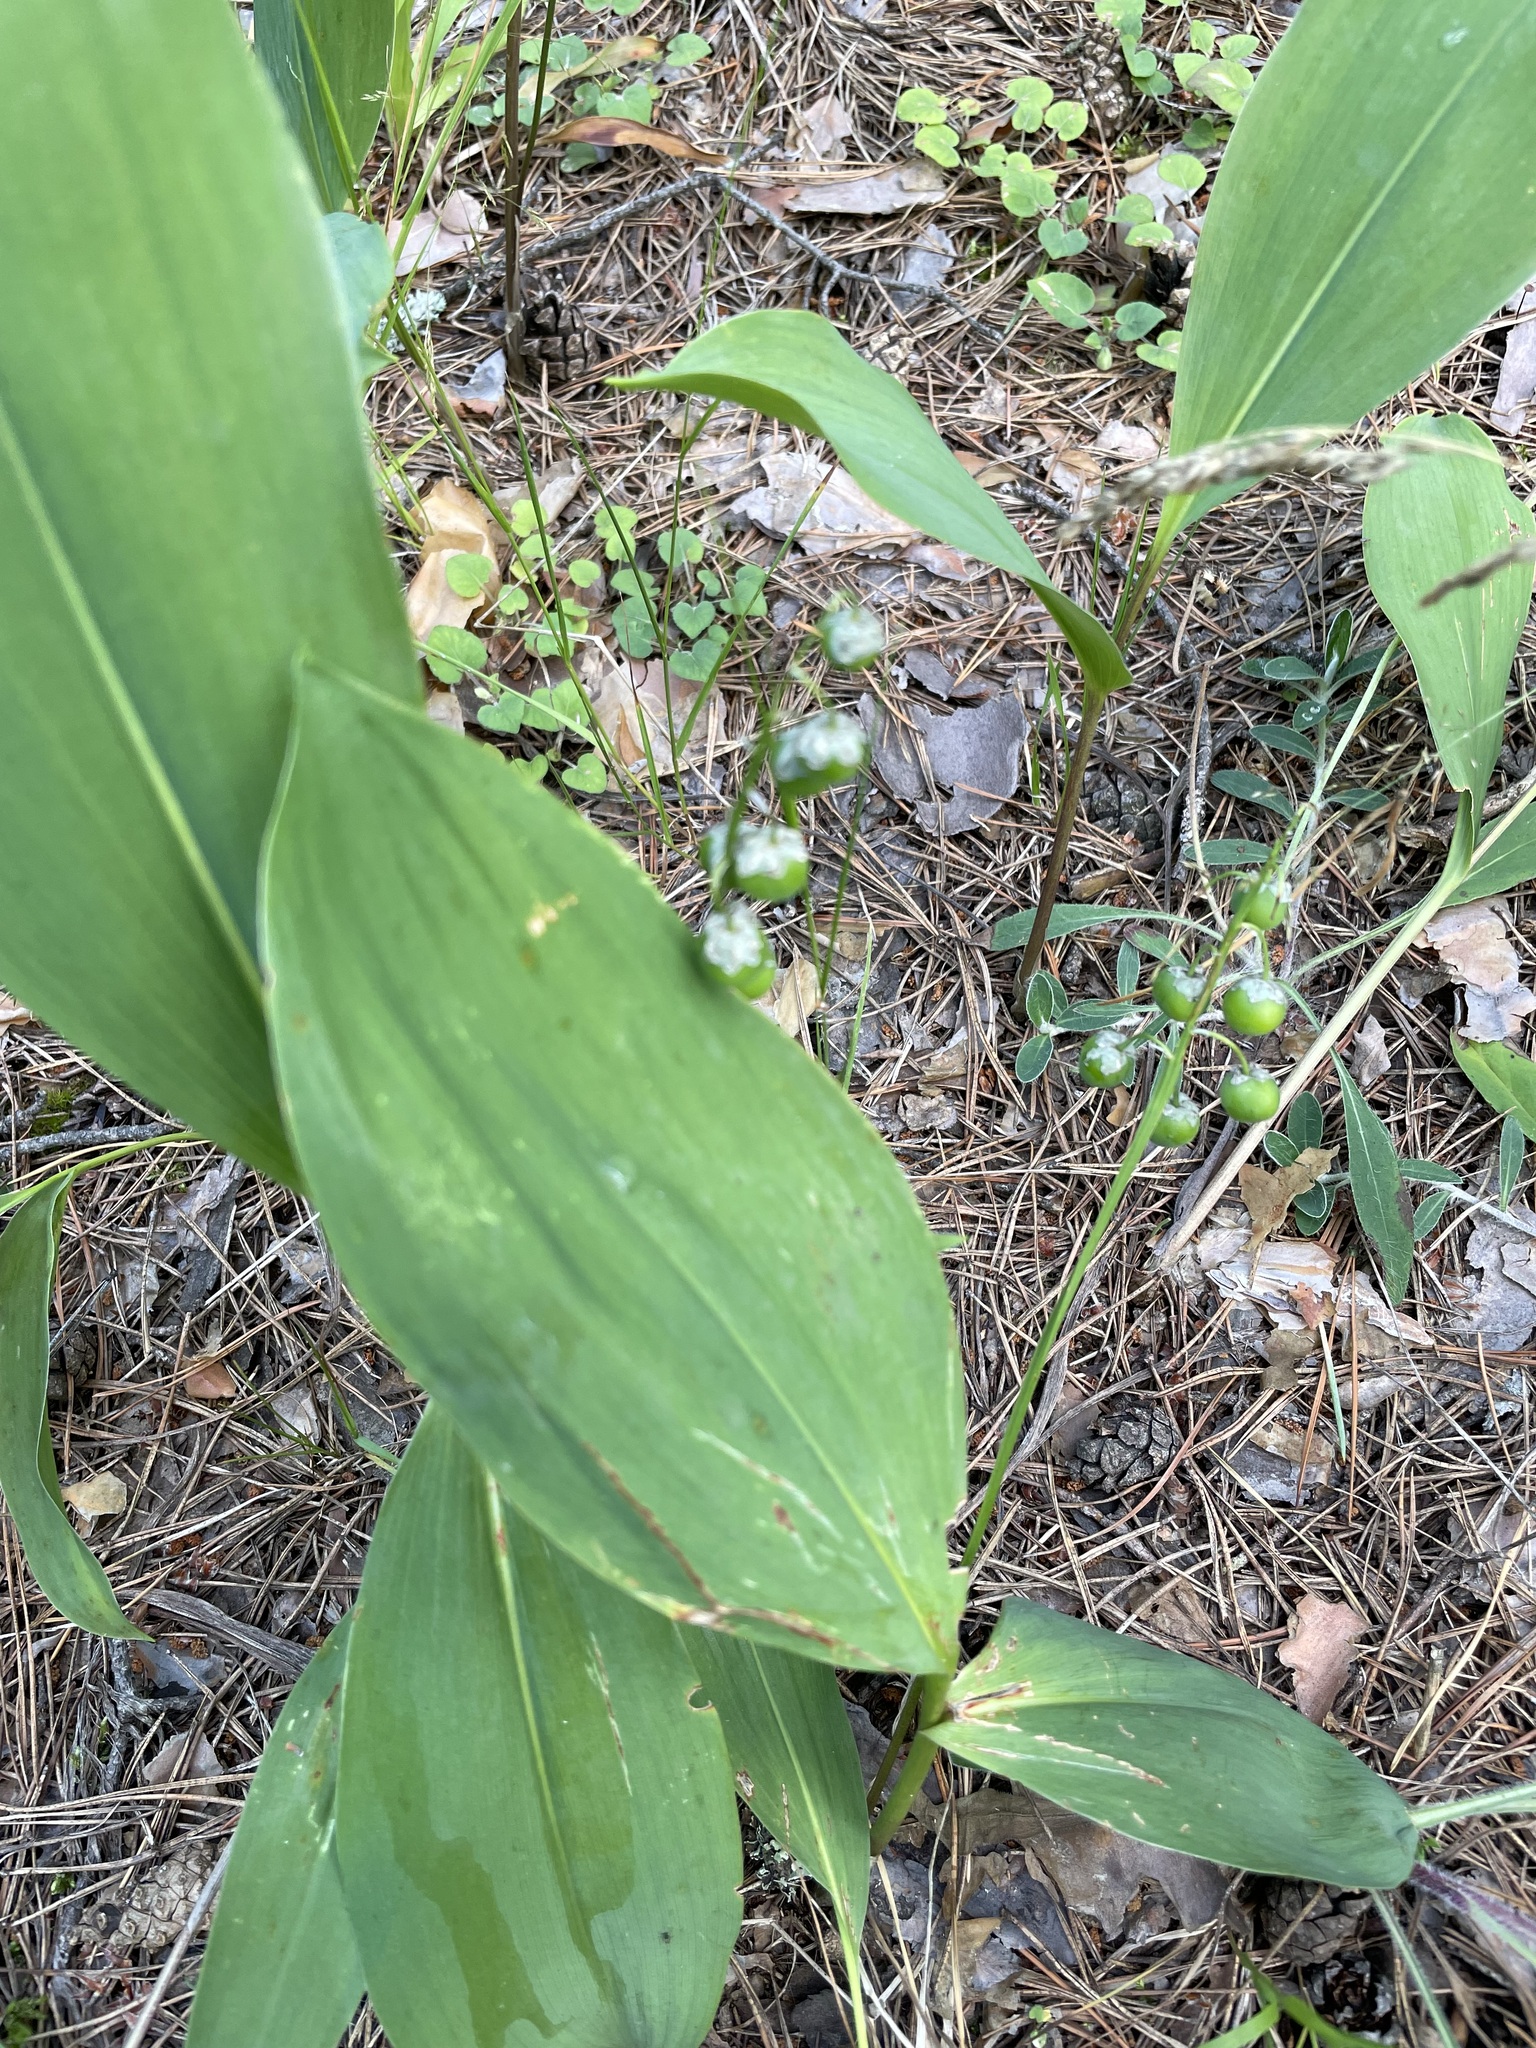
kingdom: Plantae
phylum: Tracheophyta
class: Liliopsida
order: Asparagales
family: Asparagaceae
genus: Convallaria
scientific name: Convallaria majalis
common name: Lily-of-the-valley
